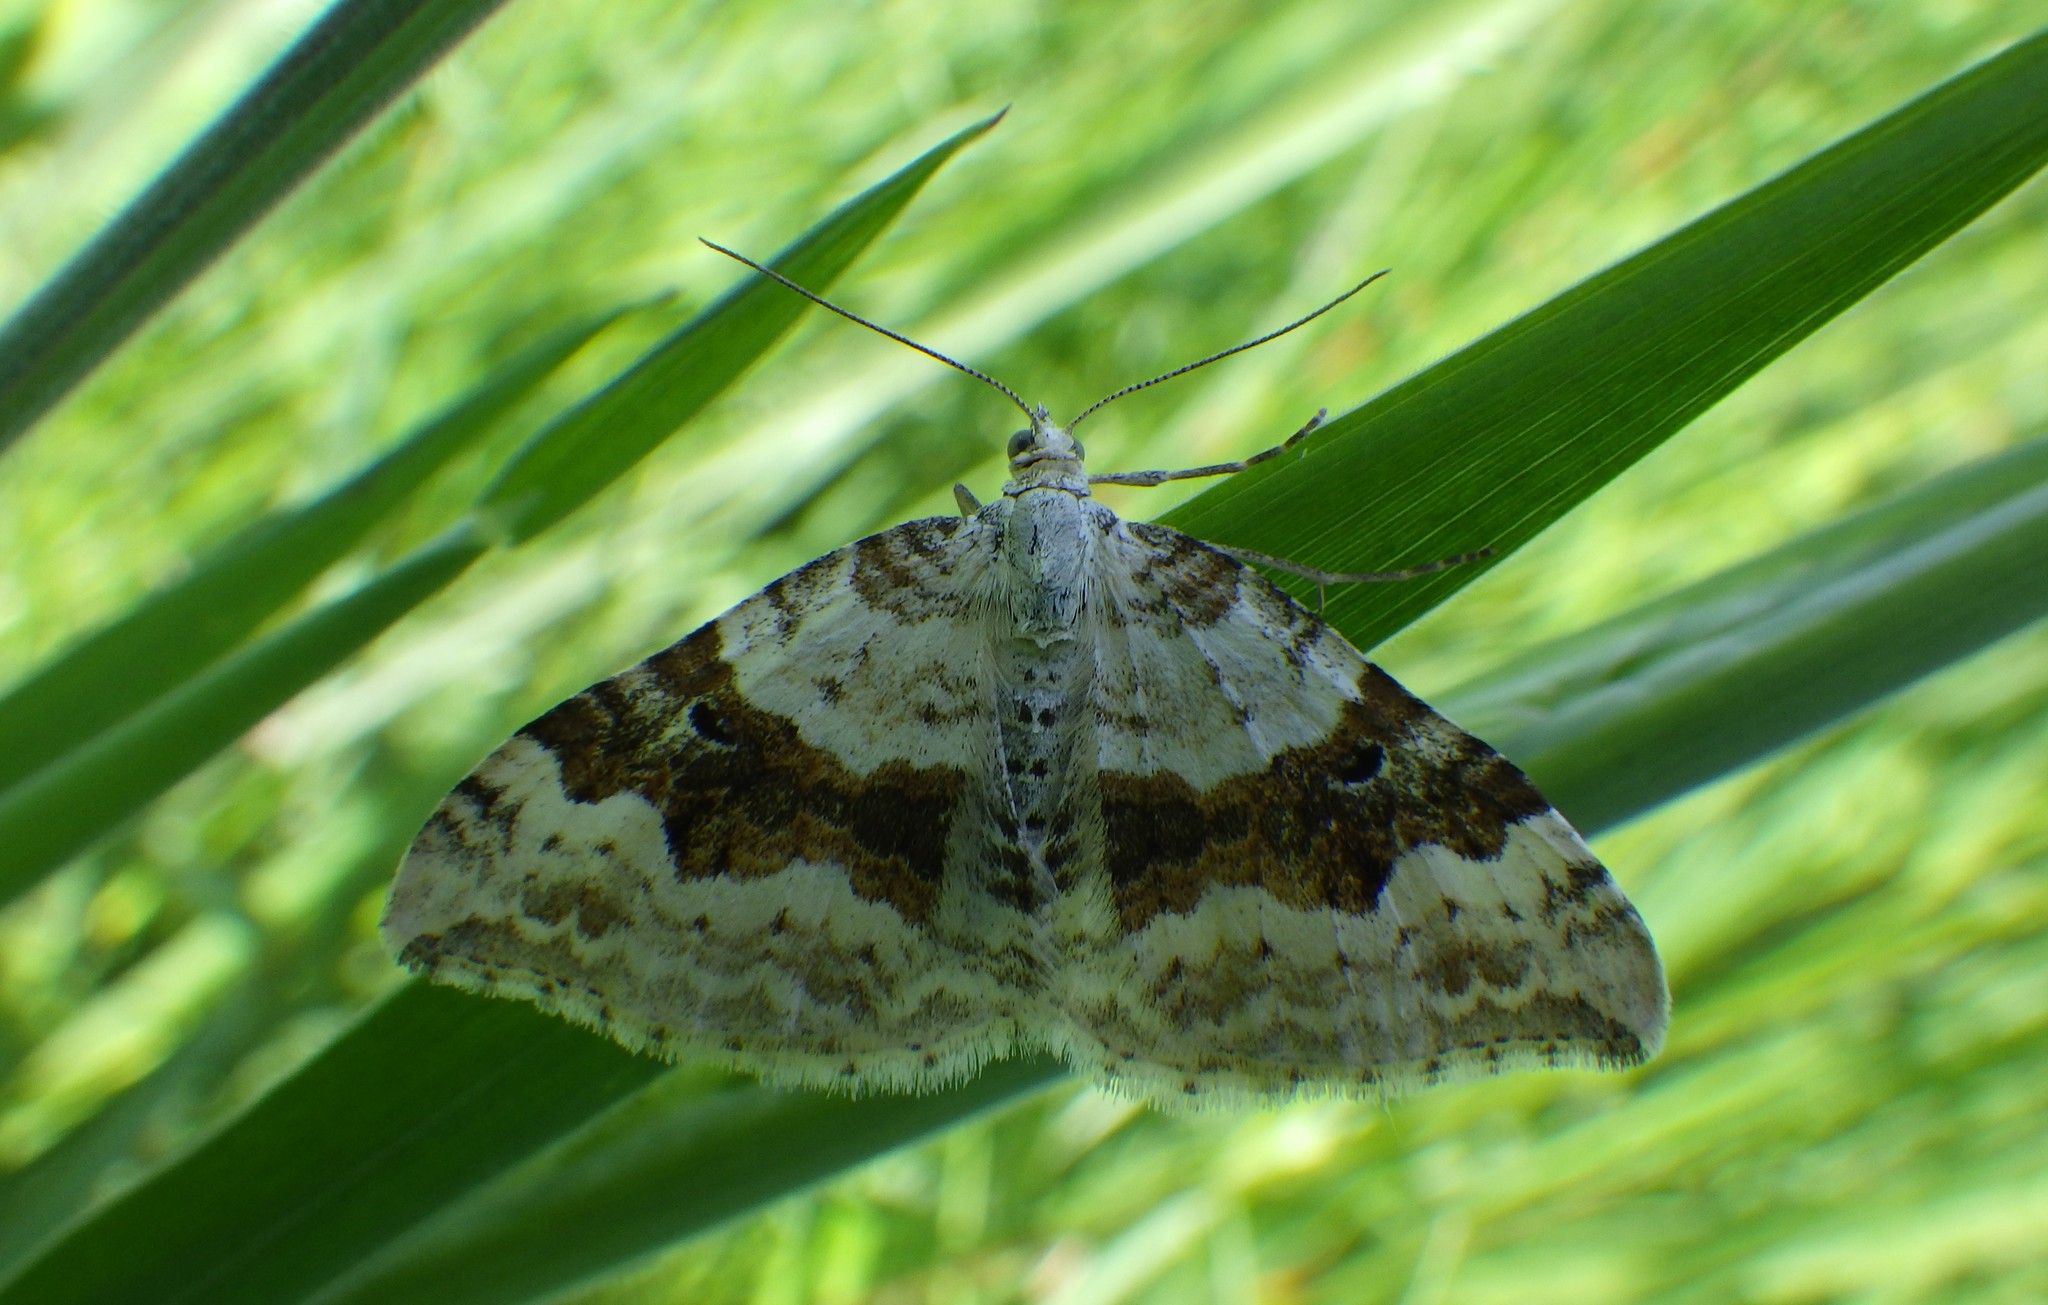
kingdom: Animalia
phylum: Arthropoda
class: Insecta
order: Lepidoptera
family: Geometridae
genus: Xanthorhoe
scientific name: Xanthorhoe montanata
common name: Silver-ground carpet
